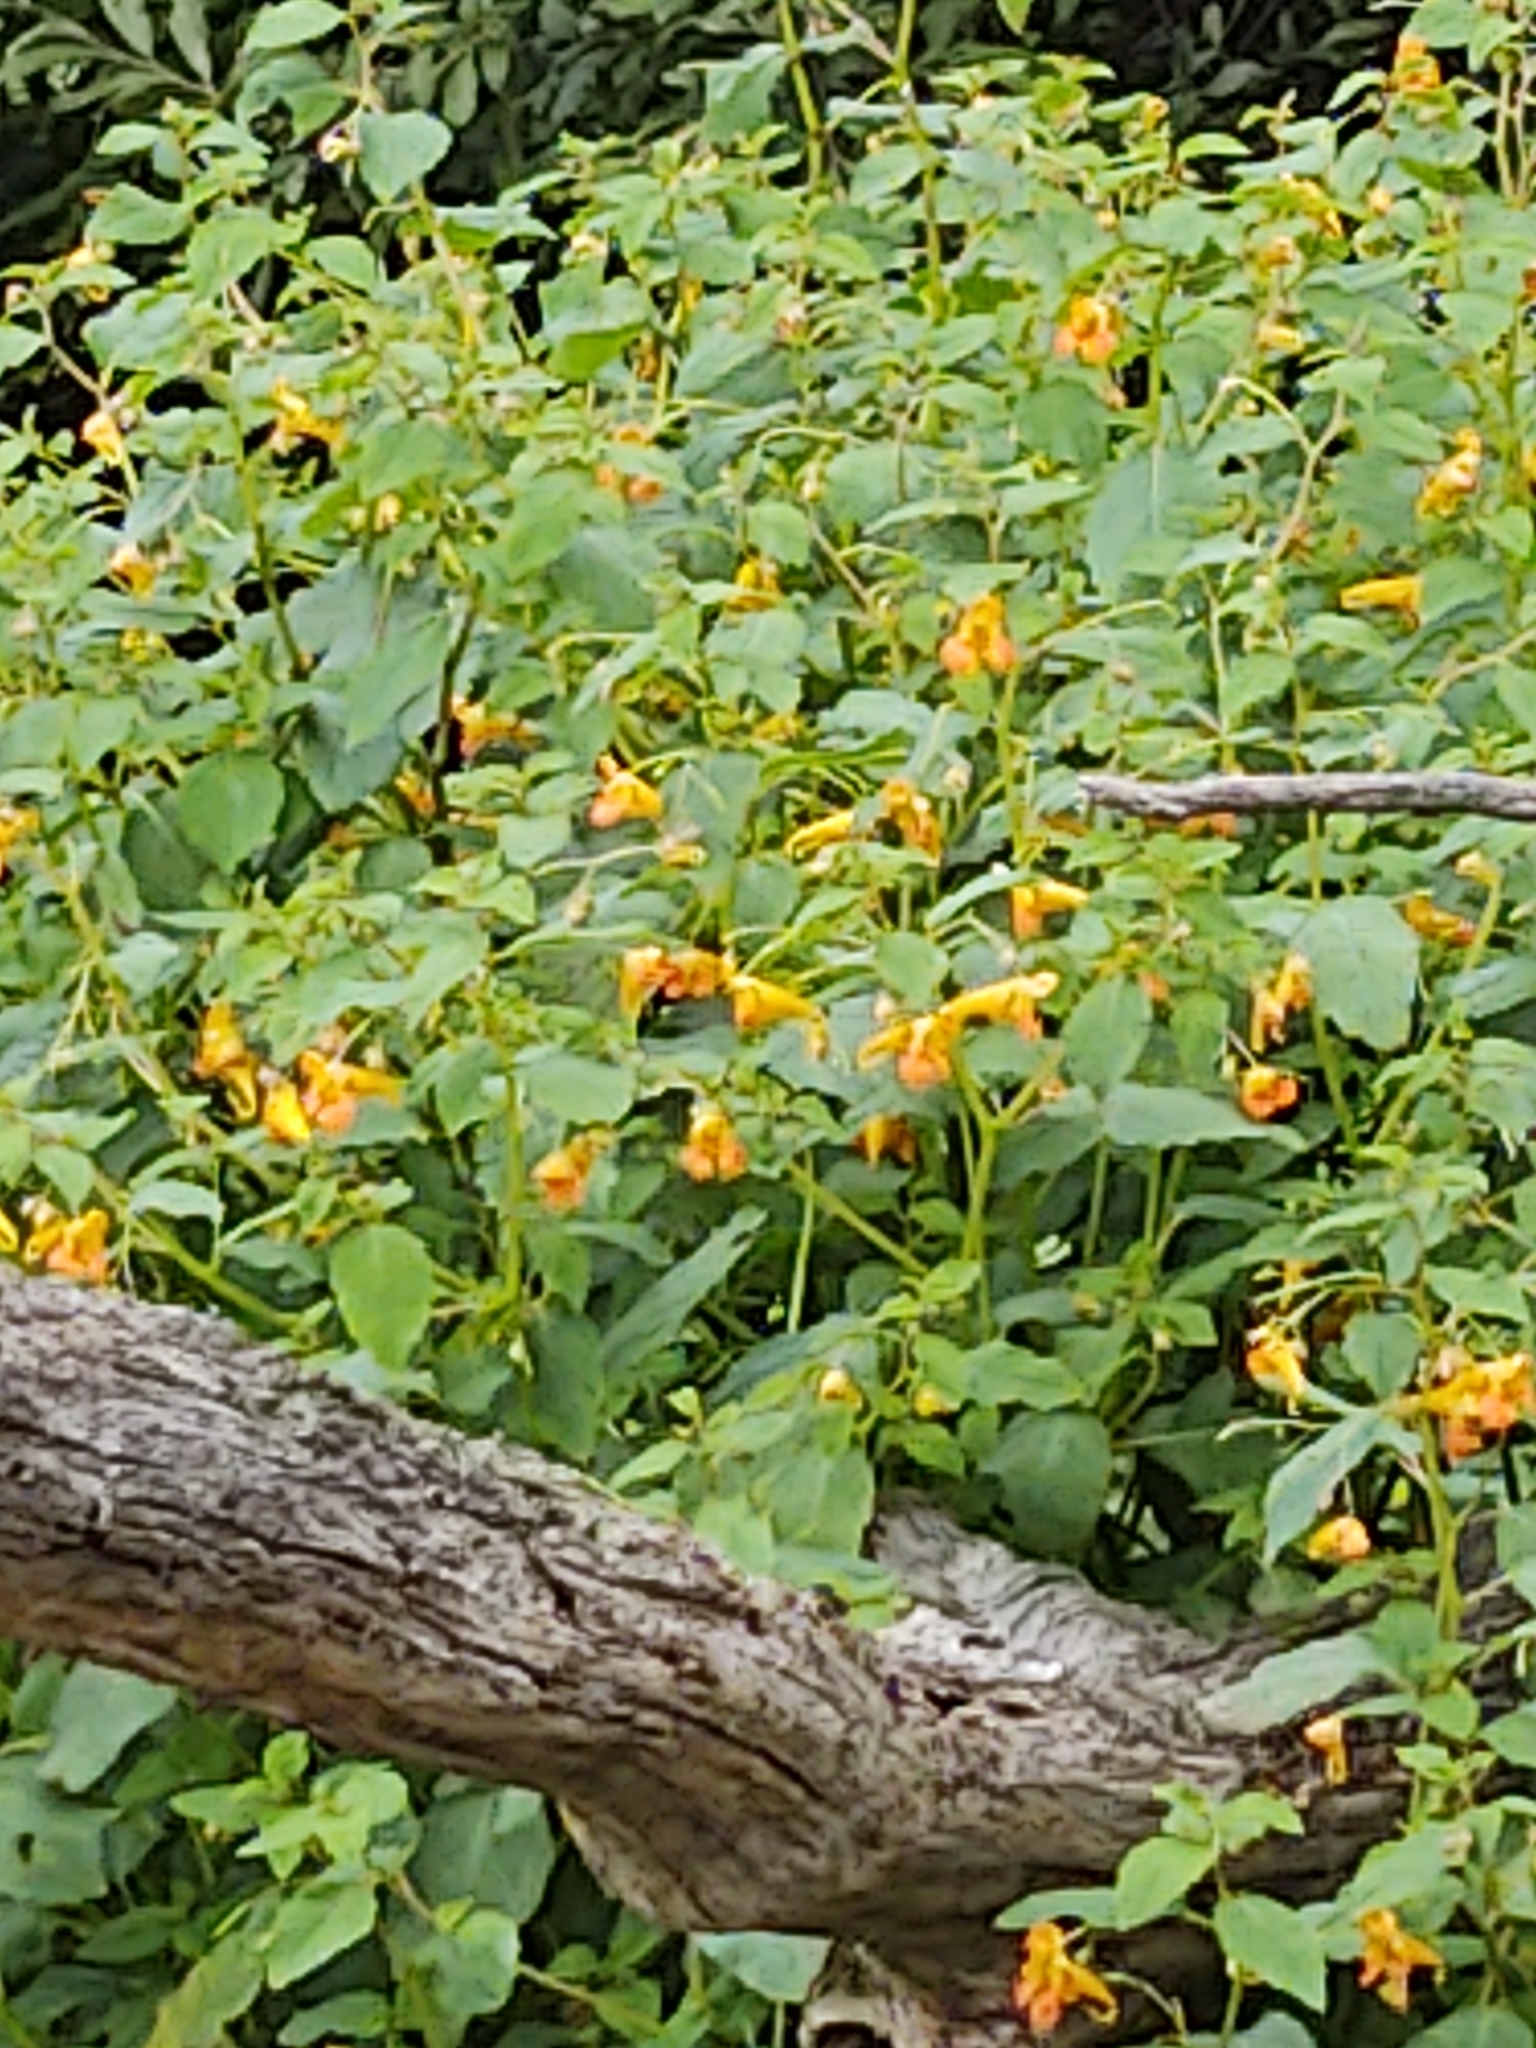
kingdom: Plantae
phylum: Tracheophyta
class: Magnoliopsida
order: Ericales
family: Balsaminaceae
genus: Impatiens
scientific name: Impatiens capensis
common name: Orange balsam
